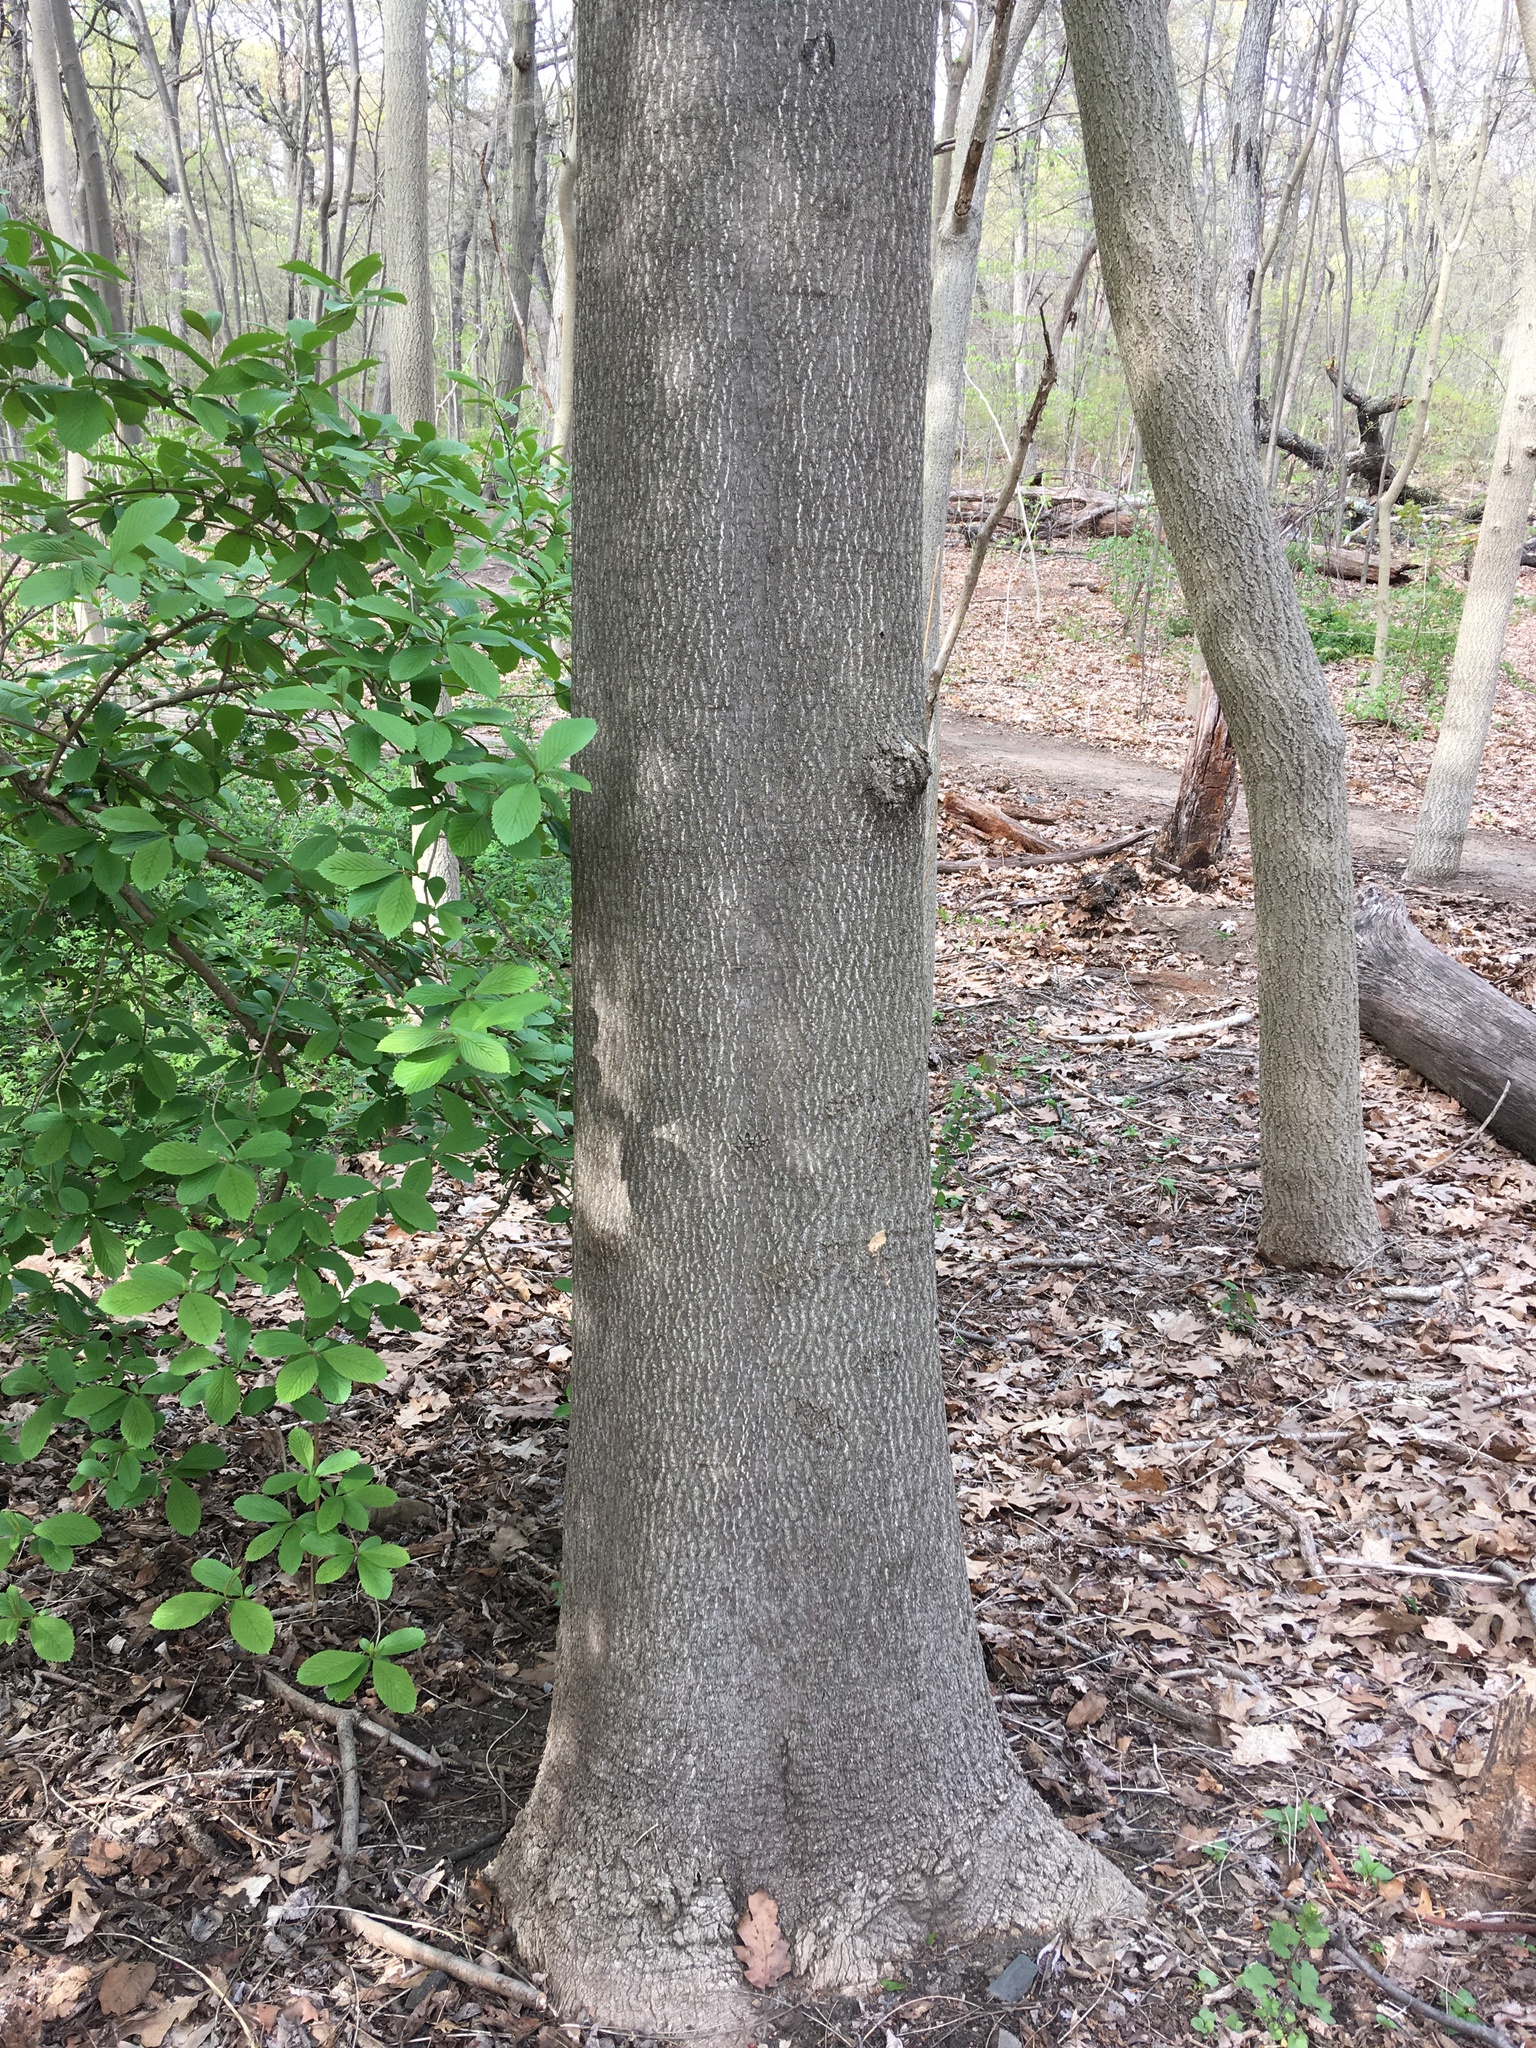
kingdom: Plantae
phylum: Tracheophyta
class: Magnoliopsida
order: Sapindales
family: Simaroubaceae
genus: Ailanthus
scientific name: Ailanthus altissima
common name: Tree-of-heaven
